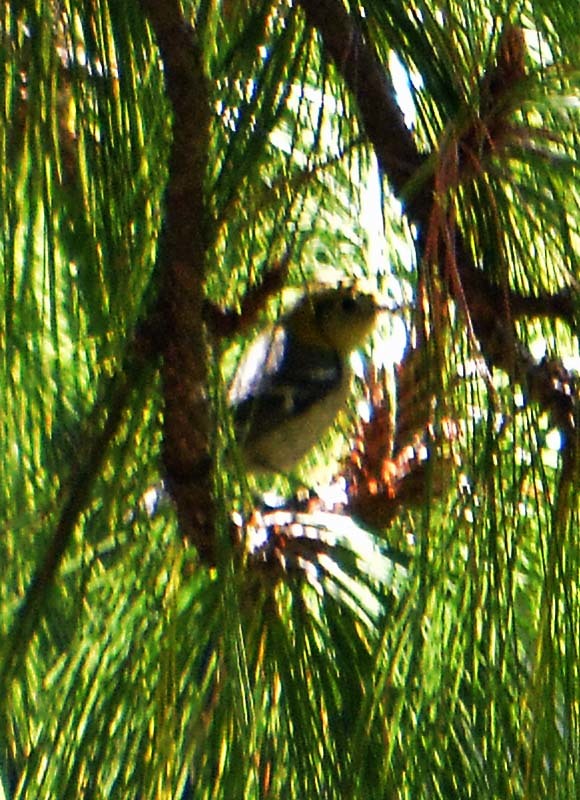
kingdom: Animalia
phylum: Chordata
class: Aves
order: Passeriformes
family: Parulidae
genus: Setophaga
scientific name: Setophaga occidentalis
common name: Hermit warbler
